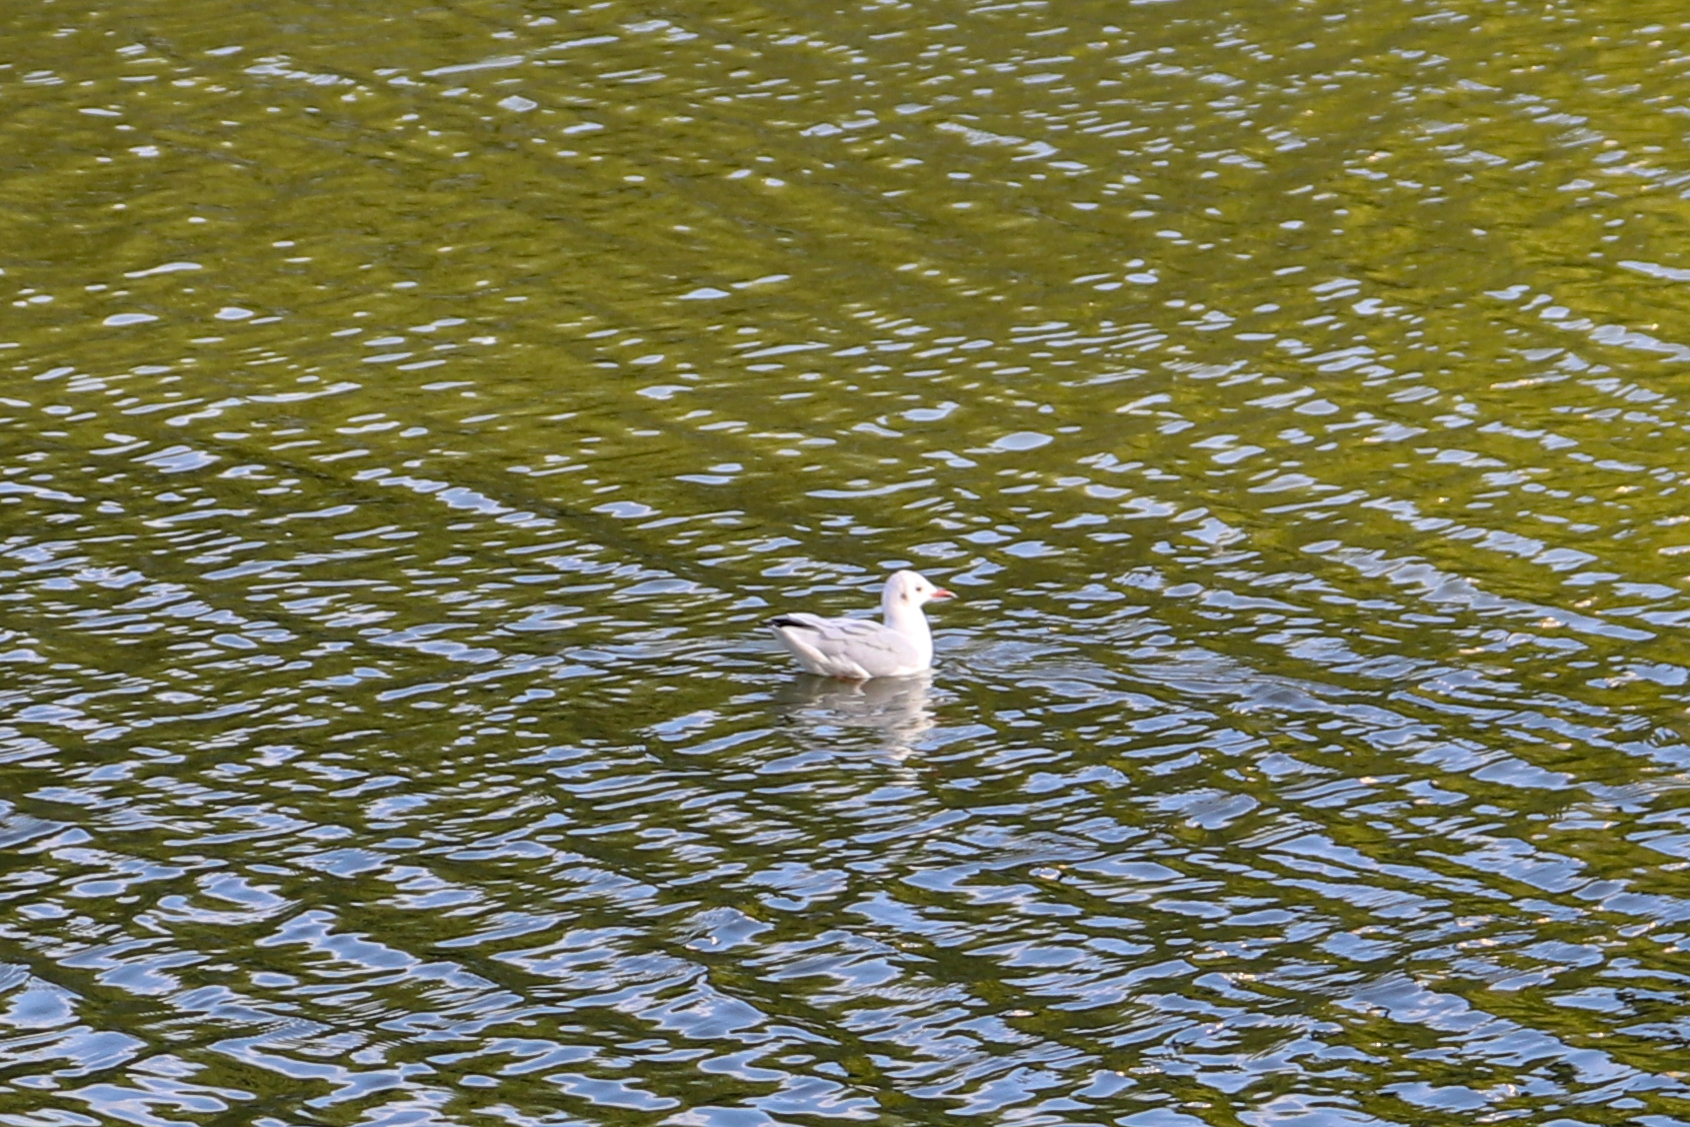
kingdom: Animalia
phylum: Chordata
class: Aves
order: Charadriiformes
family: Laridae
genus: Chroicocephalus
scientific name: Chroicocephalus ridibundus
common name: Black-headed gull
